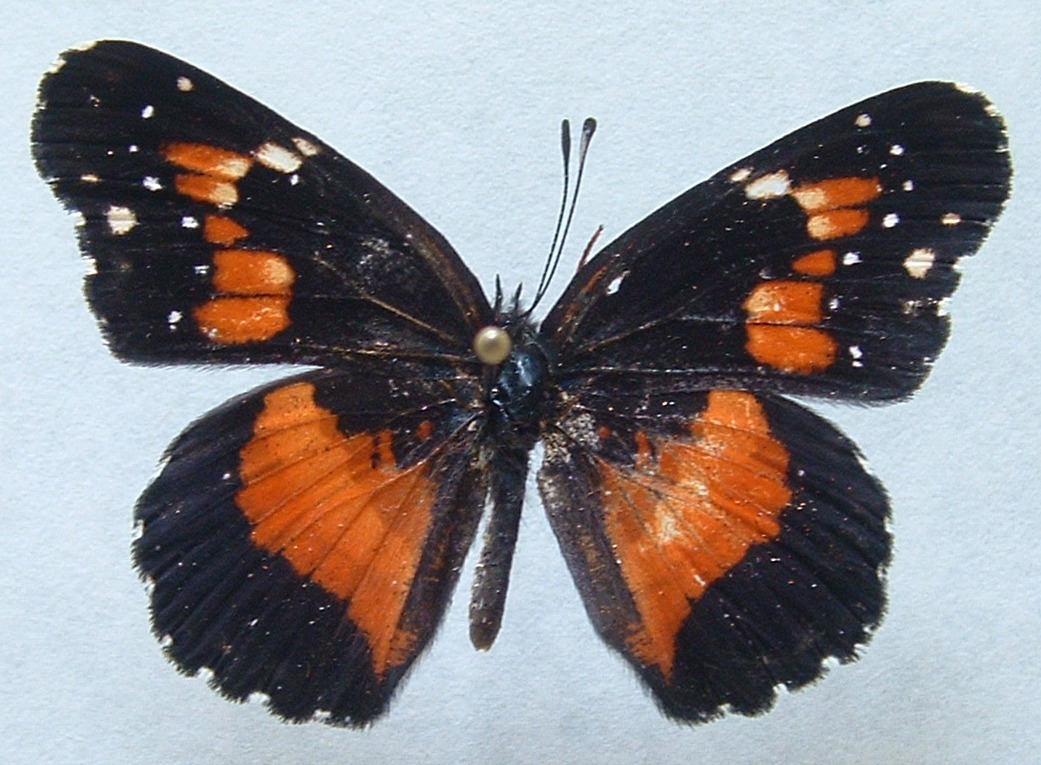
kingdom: Animalia
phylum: Arthropoda
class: Insecta
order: Lepidoptera
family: Nymphalidae
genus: Chlosyne
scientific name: Chlosyne lacinia
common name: Bordered patch
